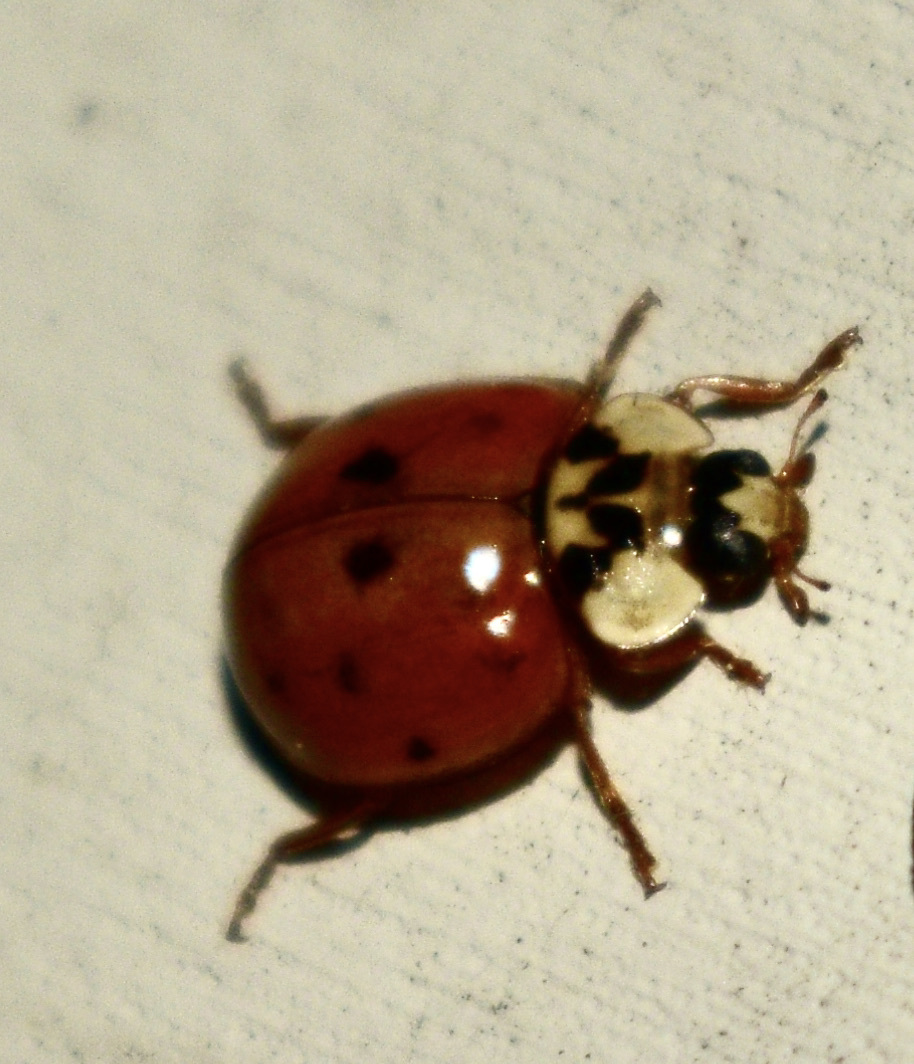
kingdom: Animalia
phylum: Arthropoda
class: Insecta
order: Coleoptera
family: Coccinellidae
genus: Harmonia
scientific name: Harmonia axyridis
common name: Harlequin ladybird
